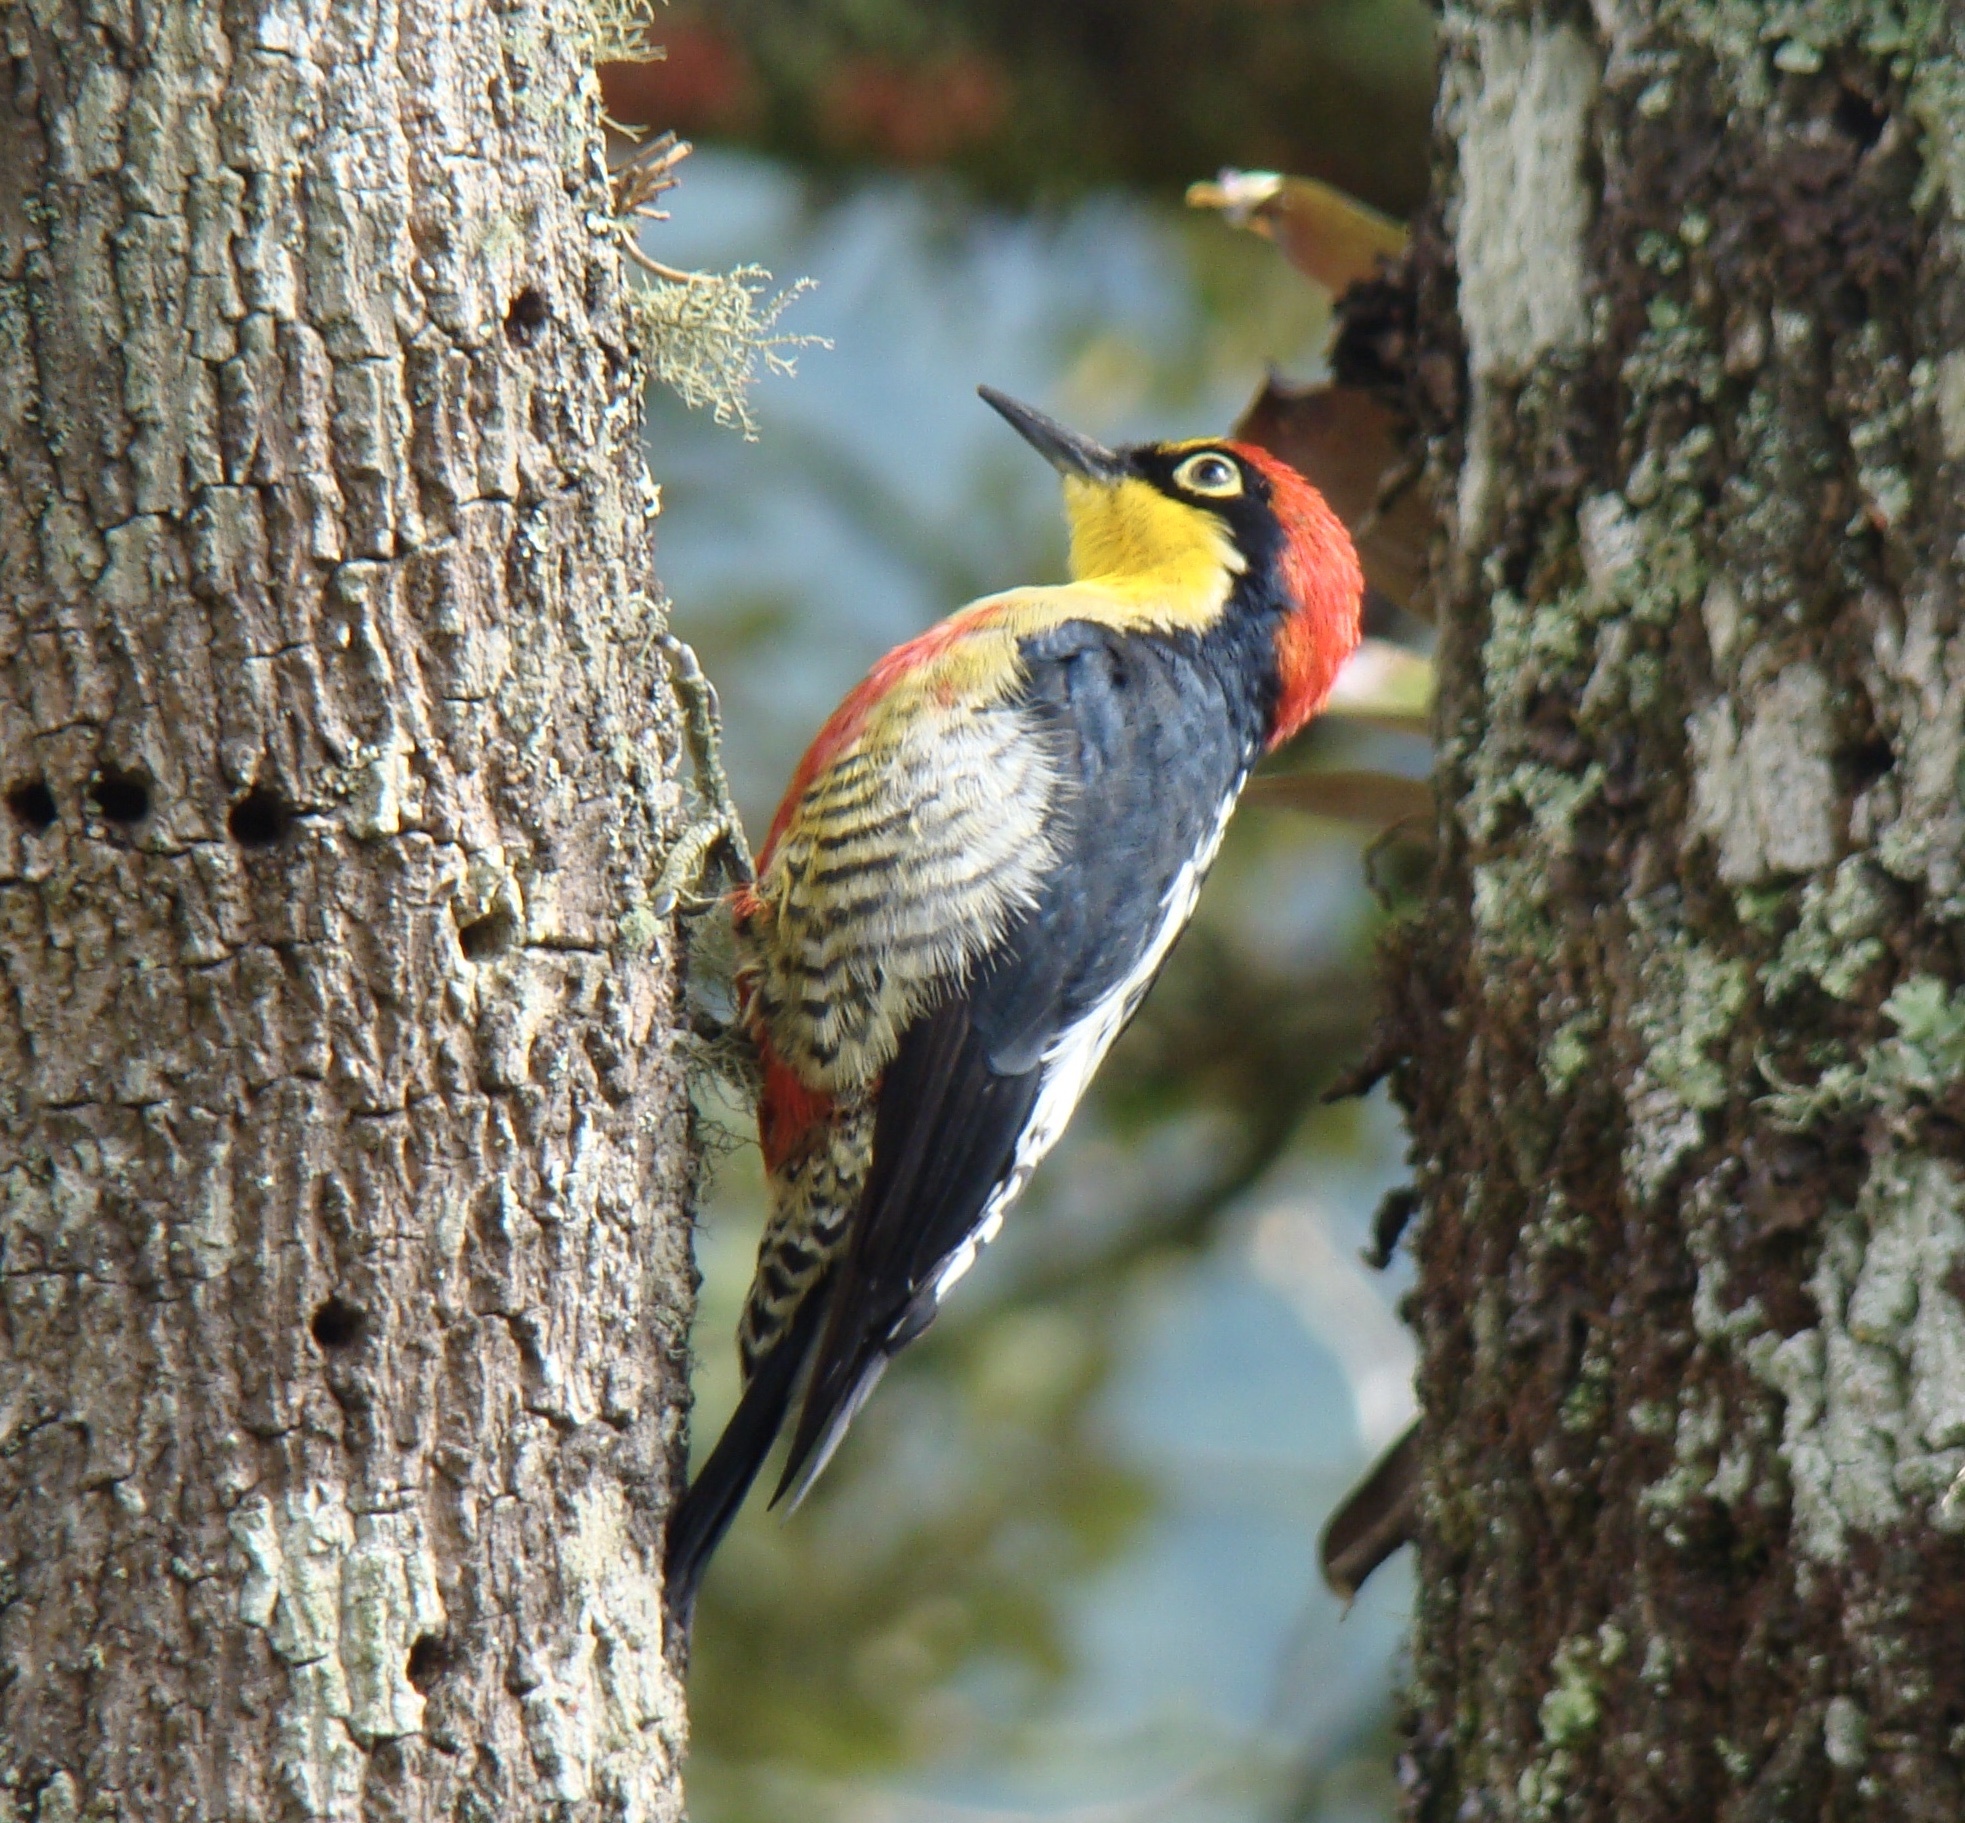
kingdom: Animalia
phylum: Chordata
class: Aves
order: Piciformes
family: Picidae
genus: Melanerpes
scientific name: Melanerpes flavifrons
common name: Yellow-fronted woodpecker
